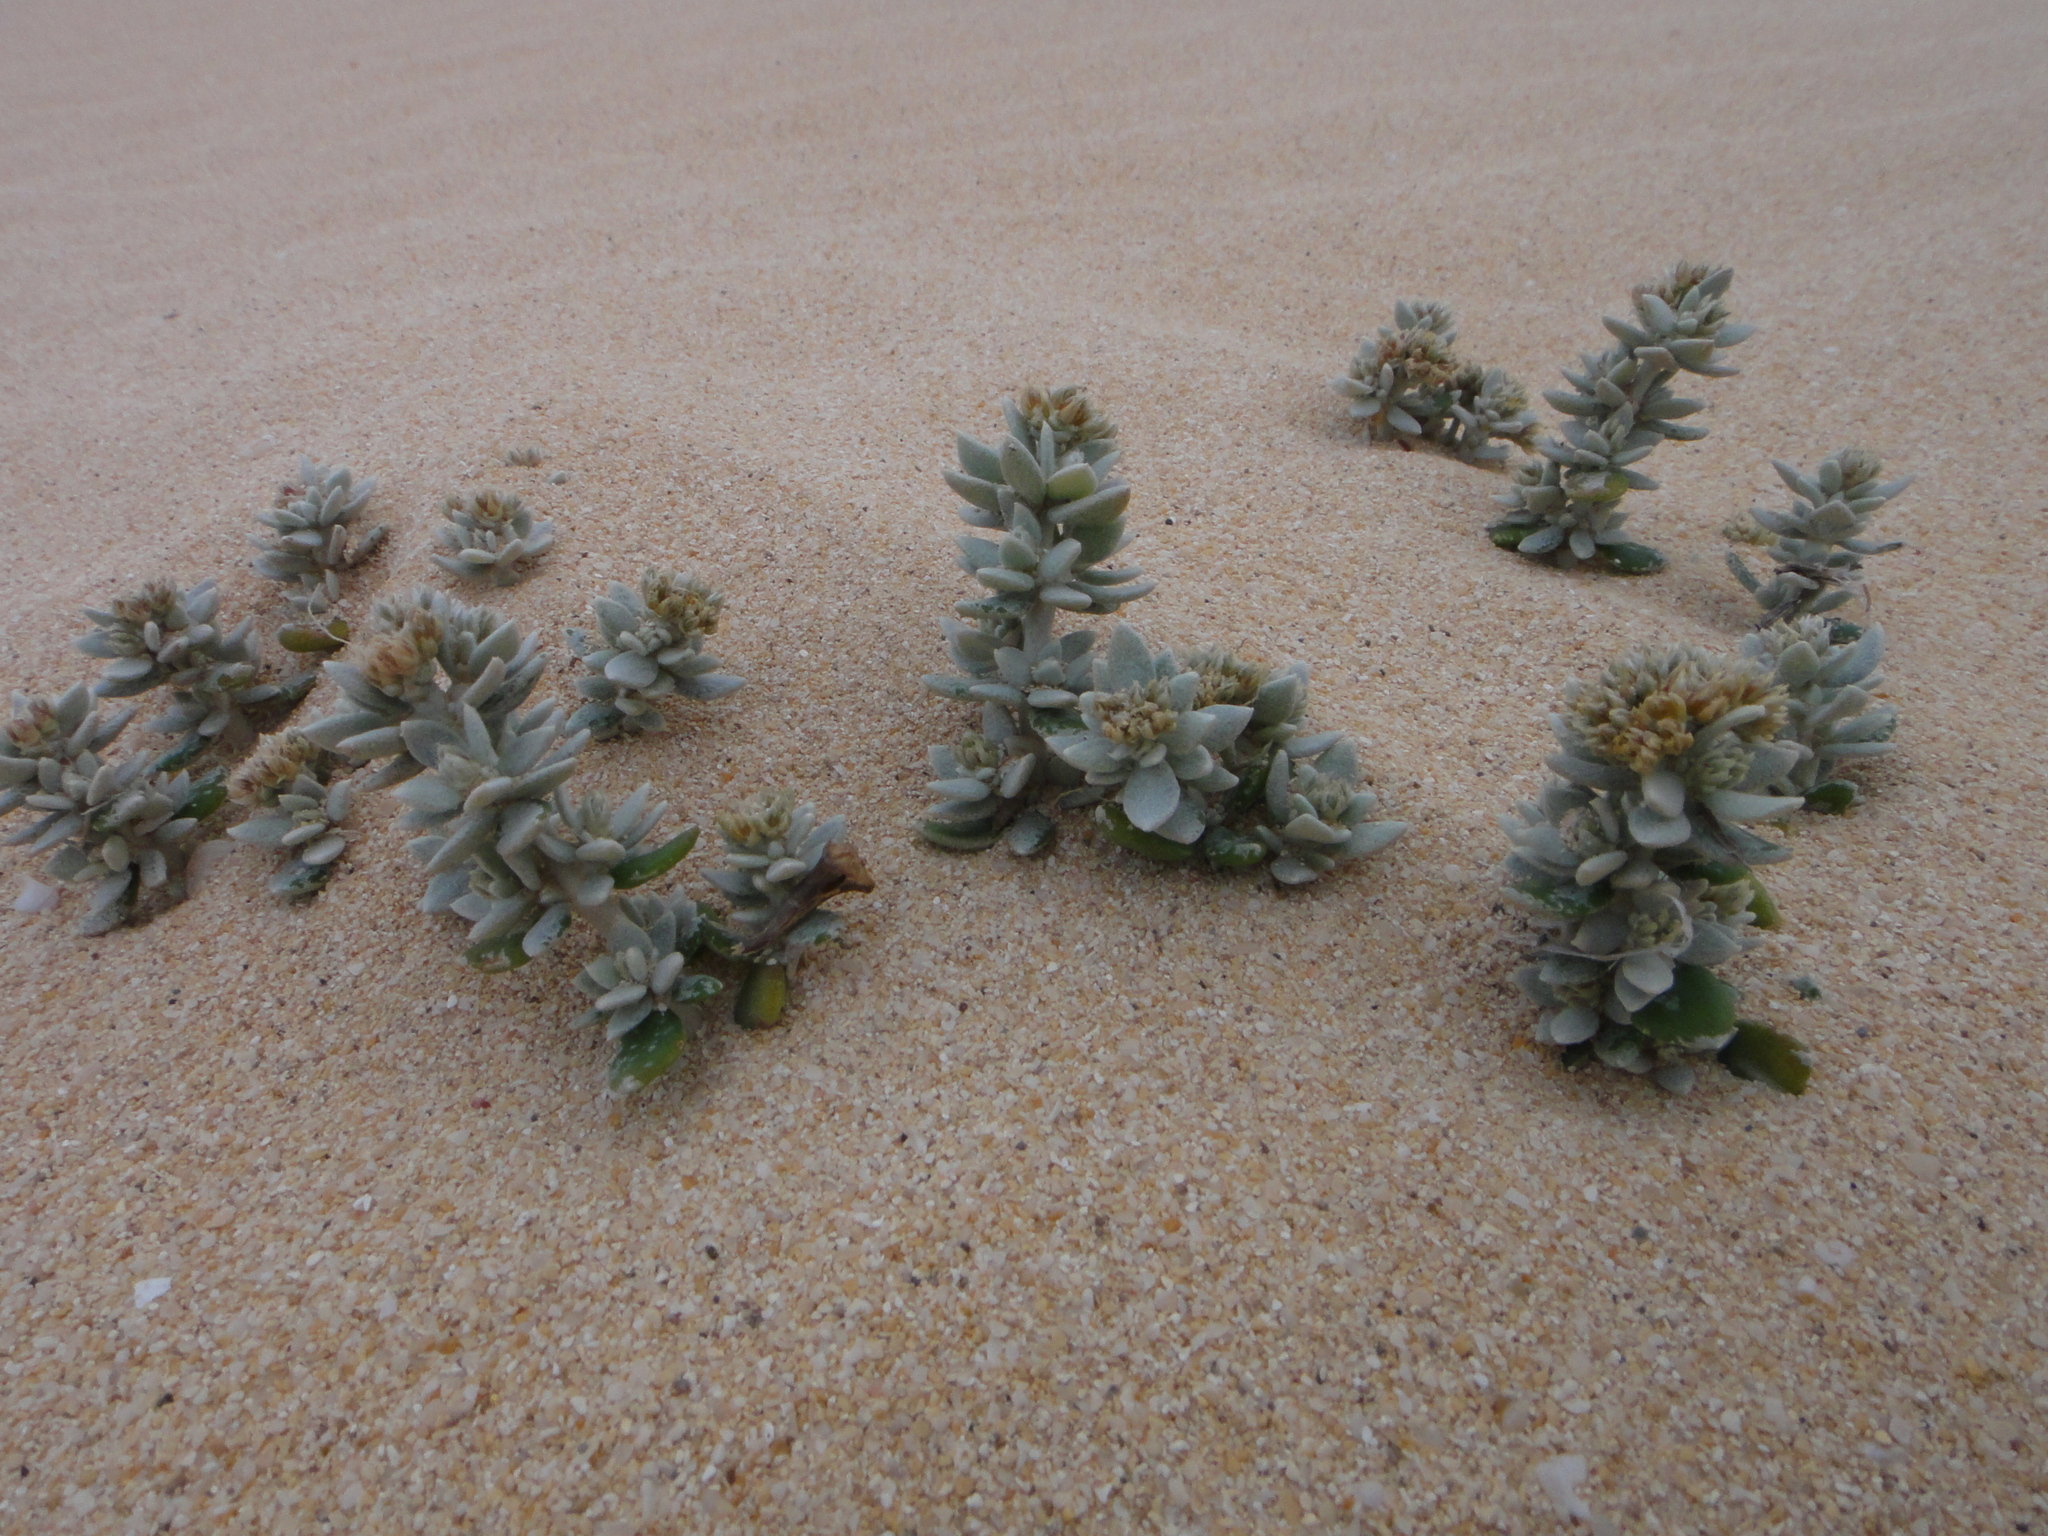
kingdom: Plantae
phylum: Tracheophyta
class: Magnoliopsida
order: Caryophyllales
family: Caryophyllaceae
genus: Polycarpaea
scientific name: Polycarpaea nivea
